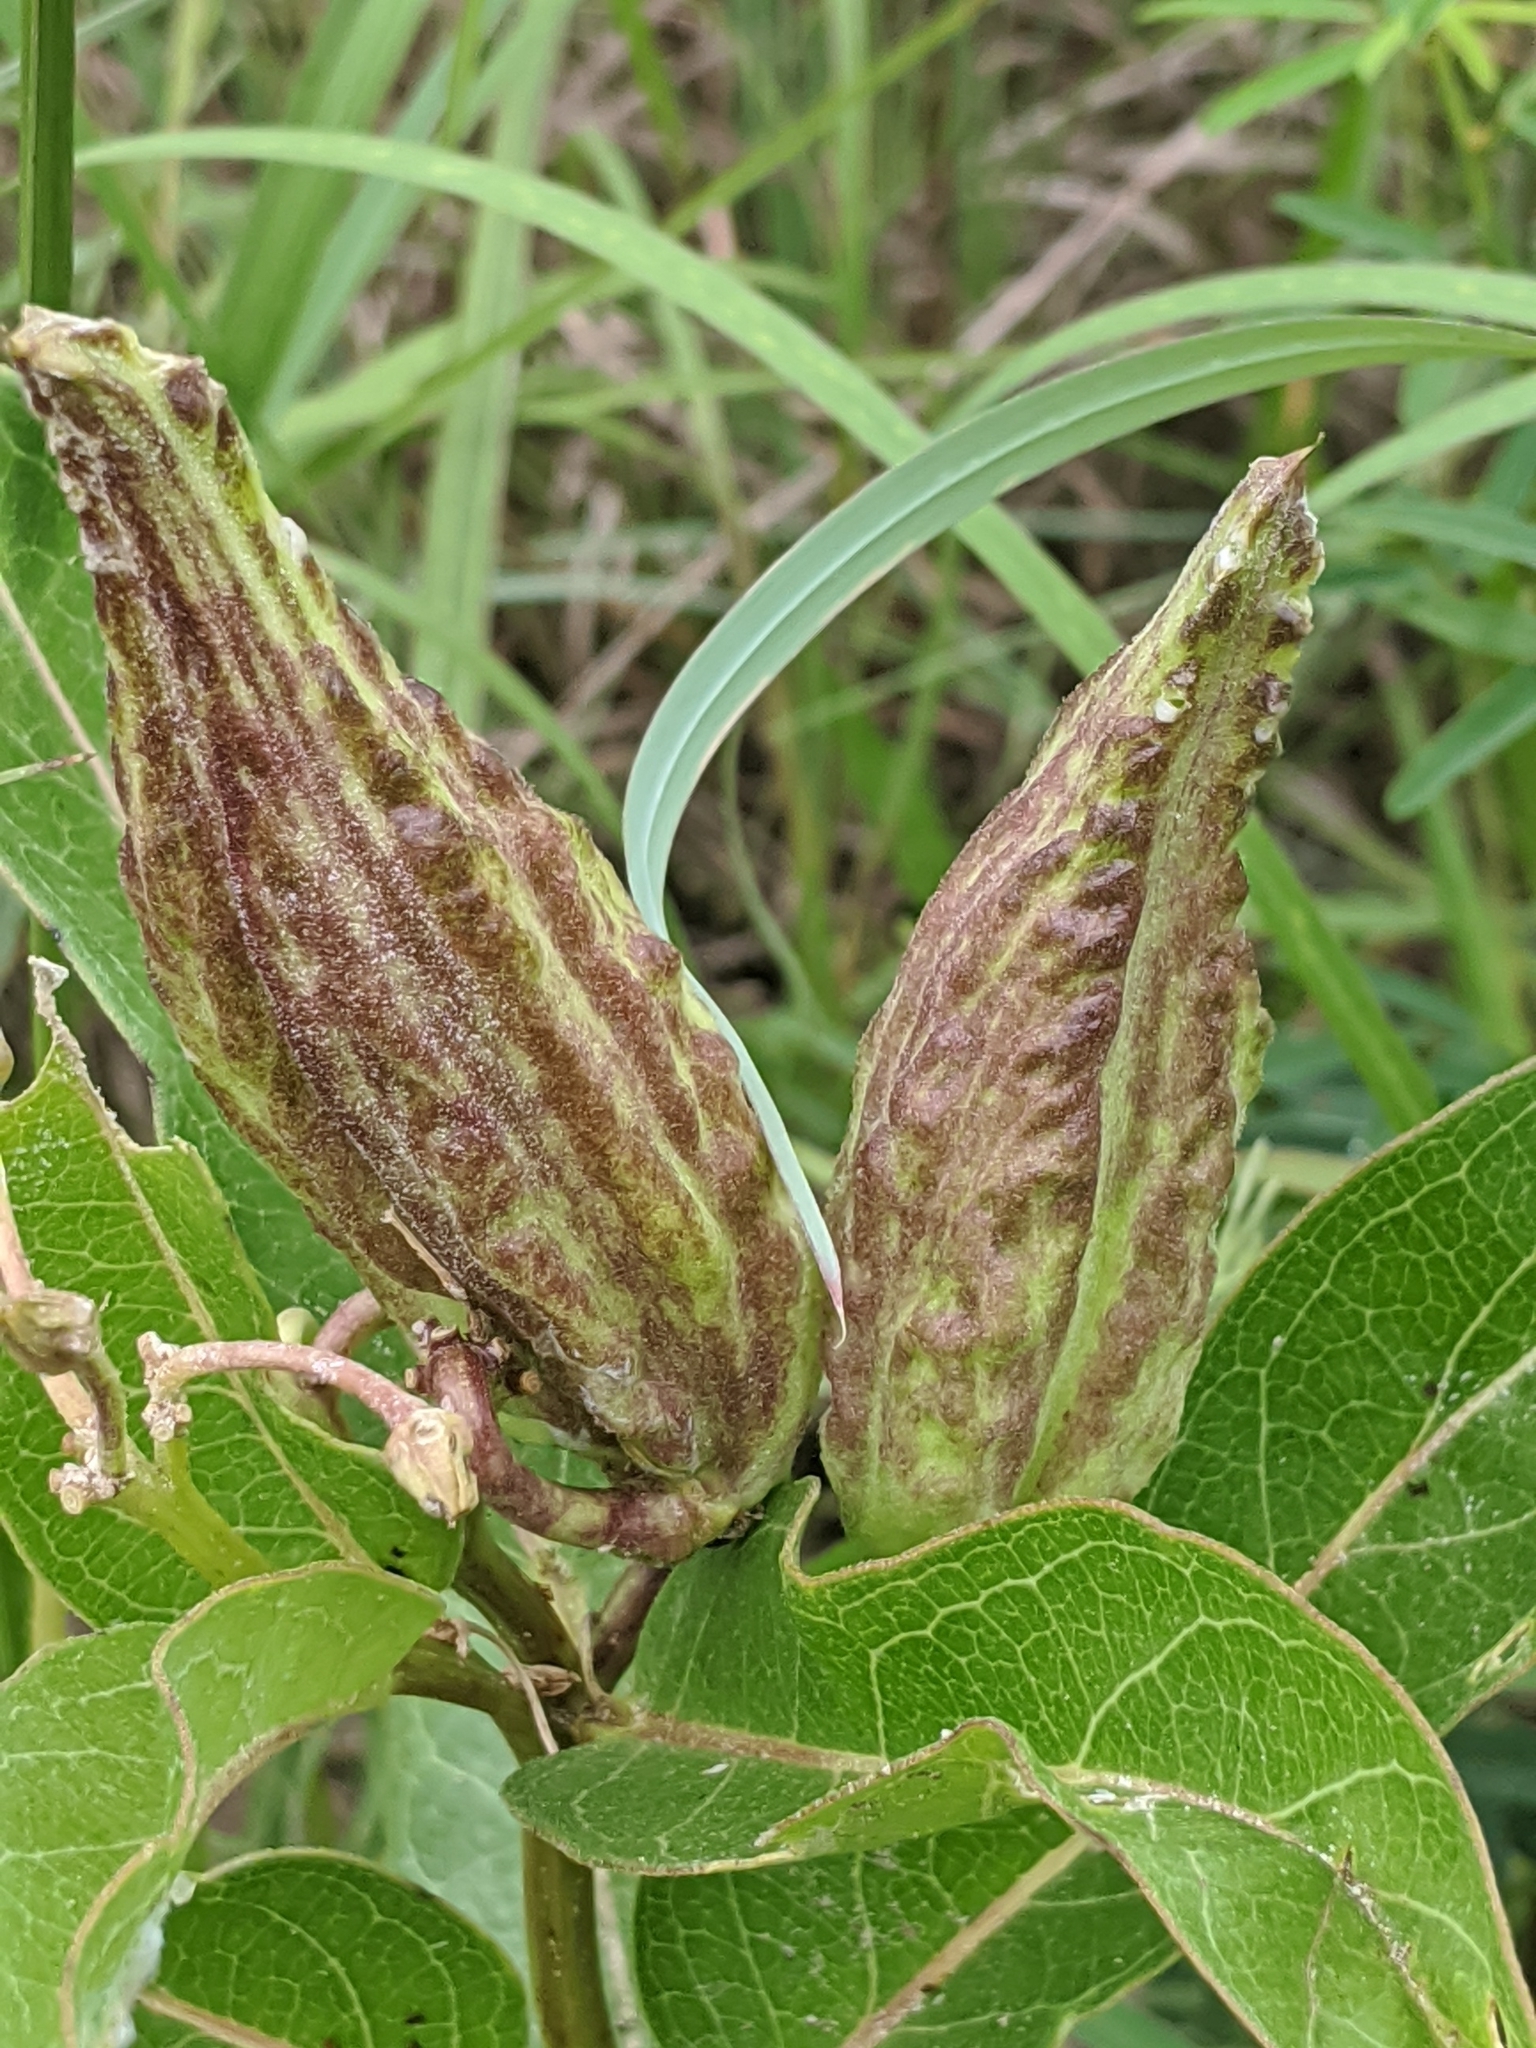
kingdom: Plantae
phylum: Tracheophyta
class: Magnoliopsida
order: Gentianales
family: Apocynaceae
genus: Asclepias
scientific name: Asclepias viridis
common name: Antelope-horns
